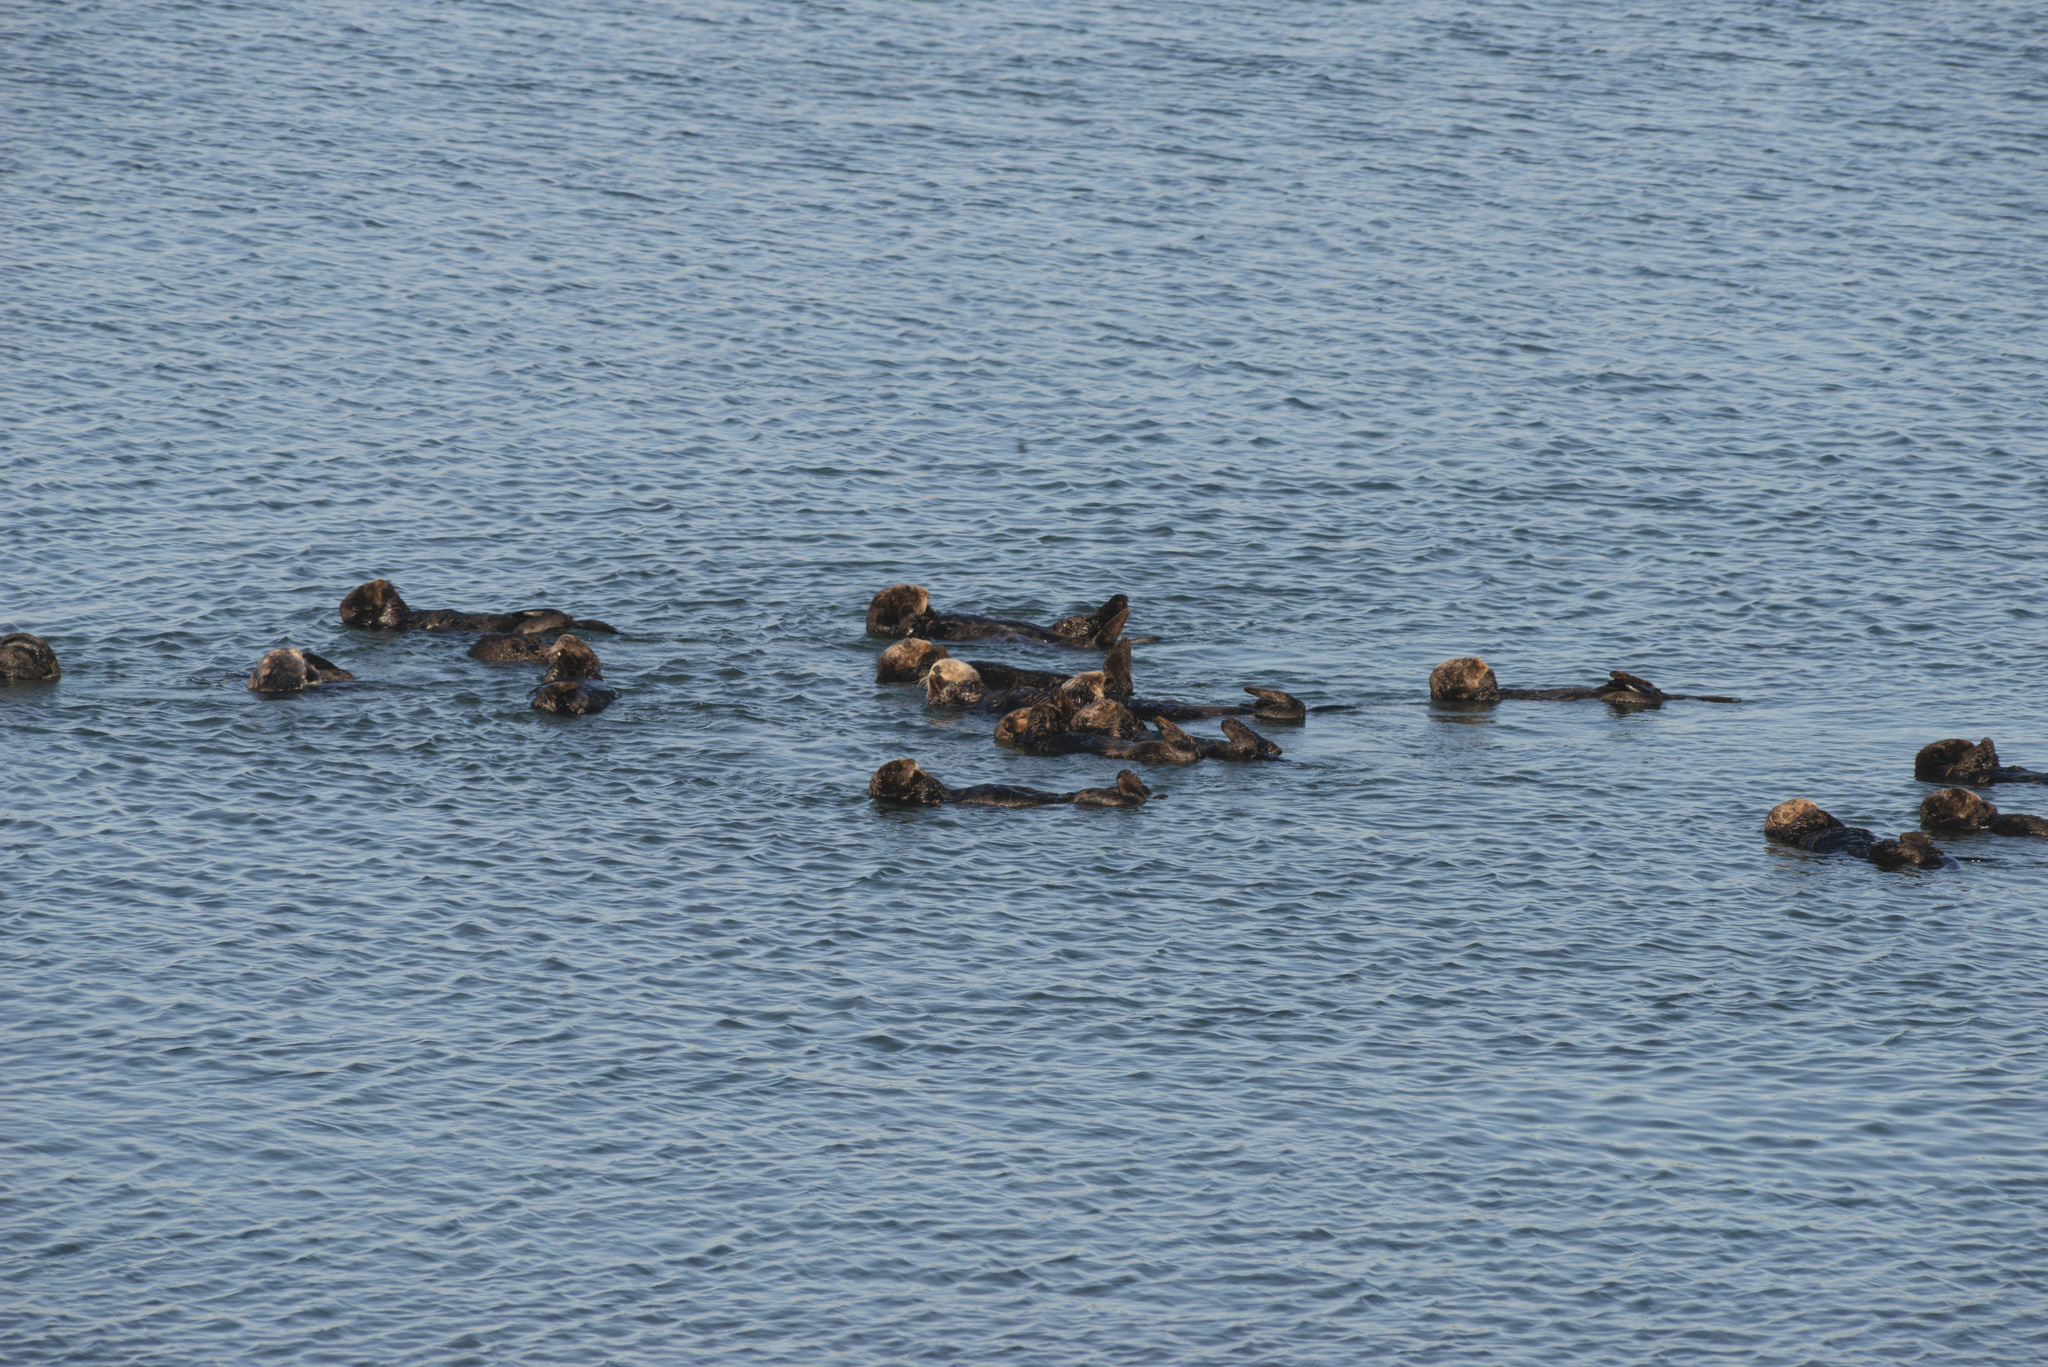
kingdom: Animalia
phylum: Chordata
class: Mammalia
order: Carnivora
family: Mustelidae
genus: Enhydra
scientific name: Enhydra lutris
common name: Sea otter
